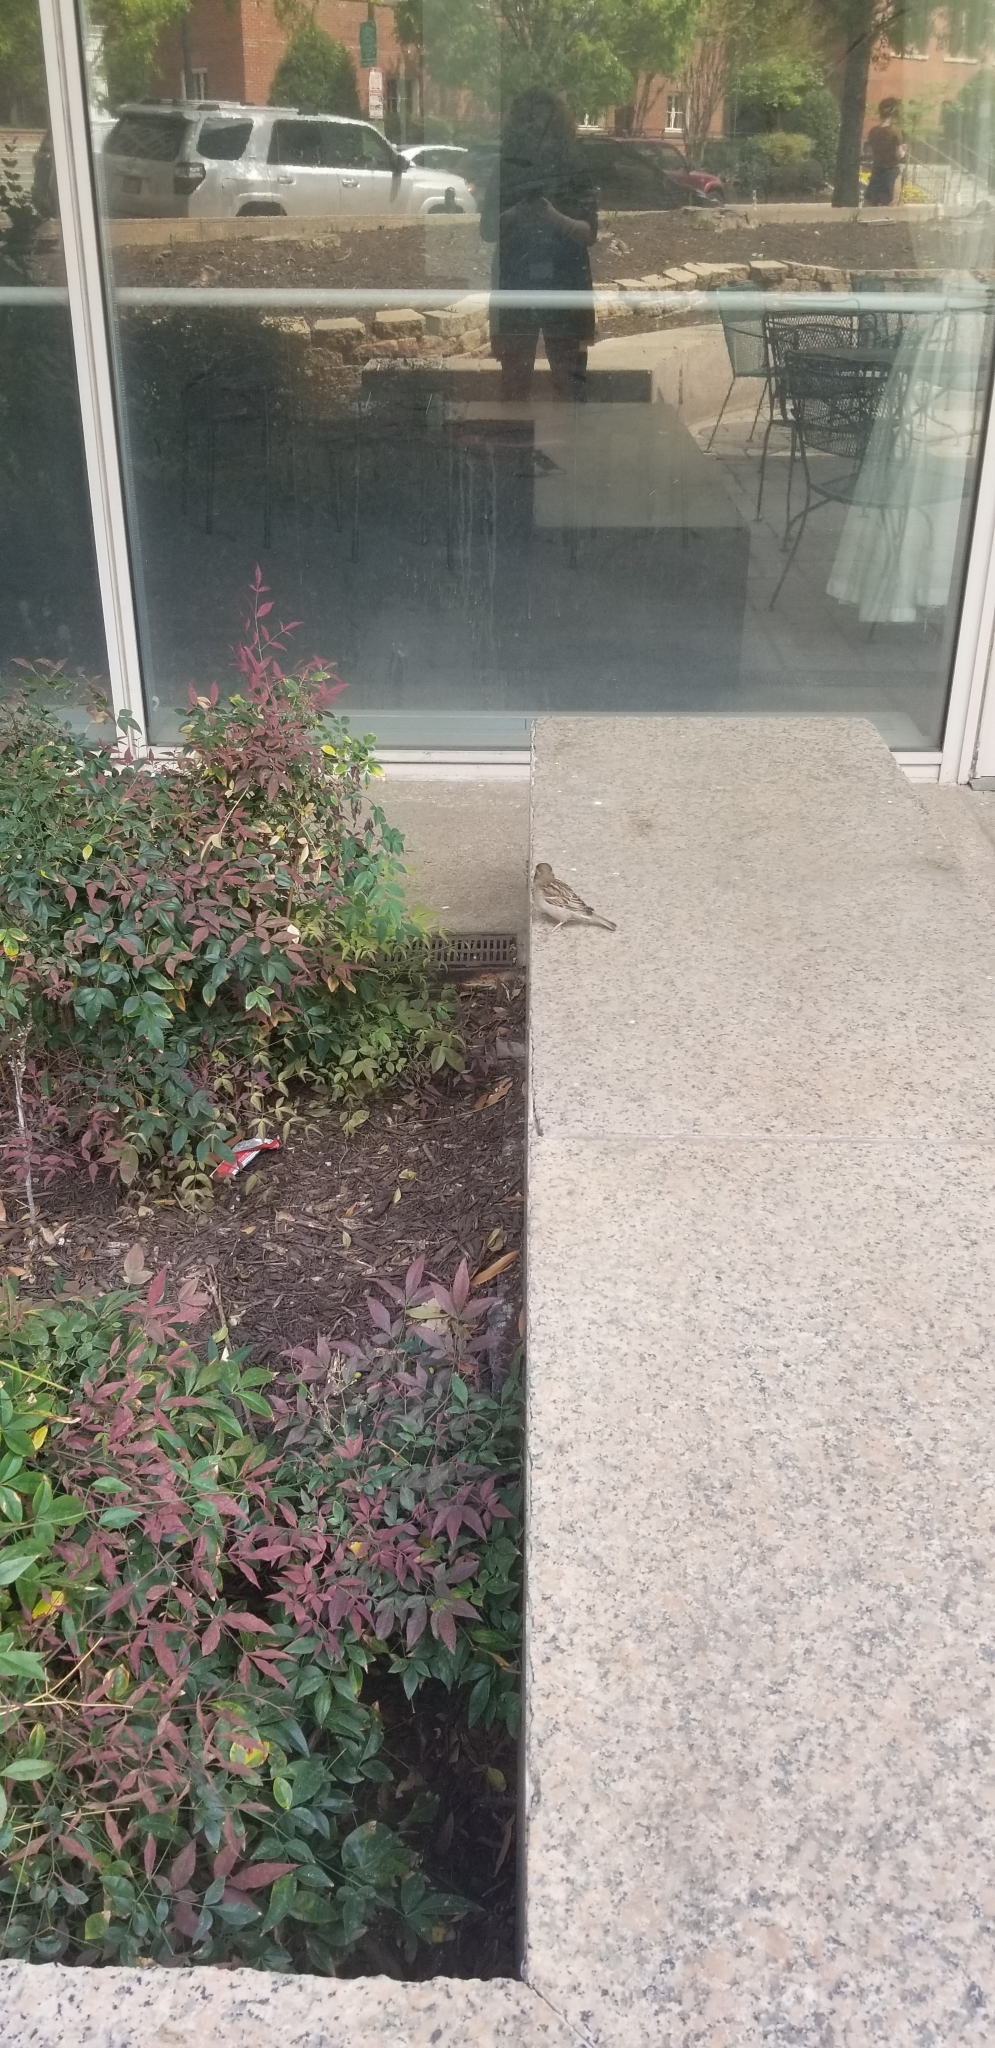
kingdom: Animalia
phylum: Chordata
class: Aves
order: Passeriformes
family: Passeridae
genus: Passer
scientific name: Passer domesticus
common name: House sparrow
